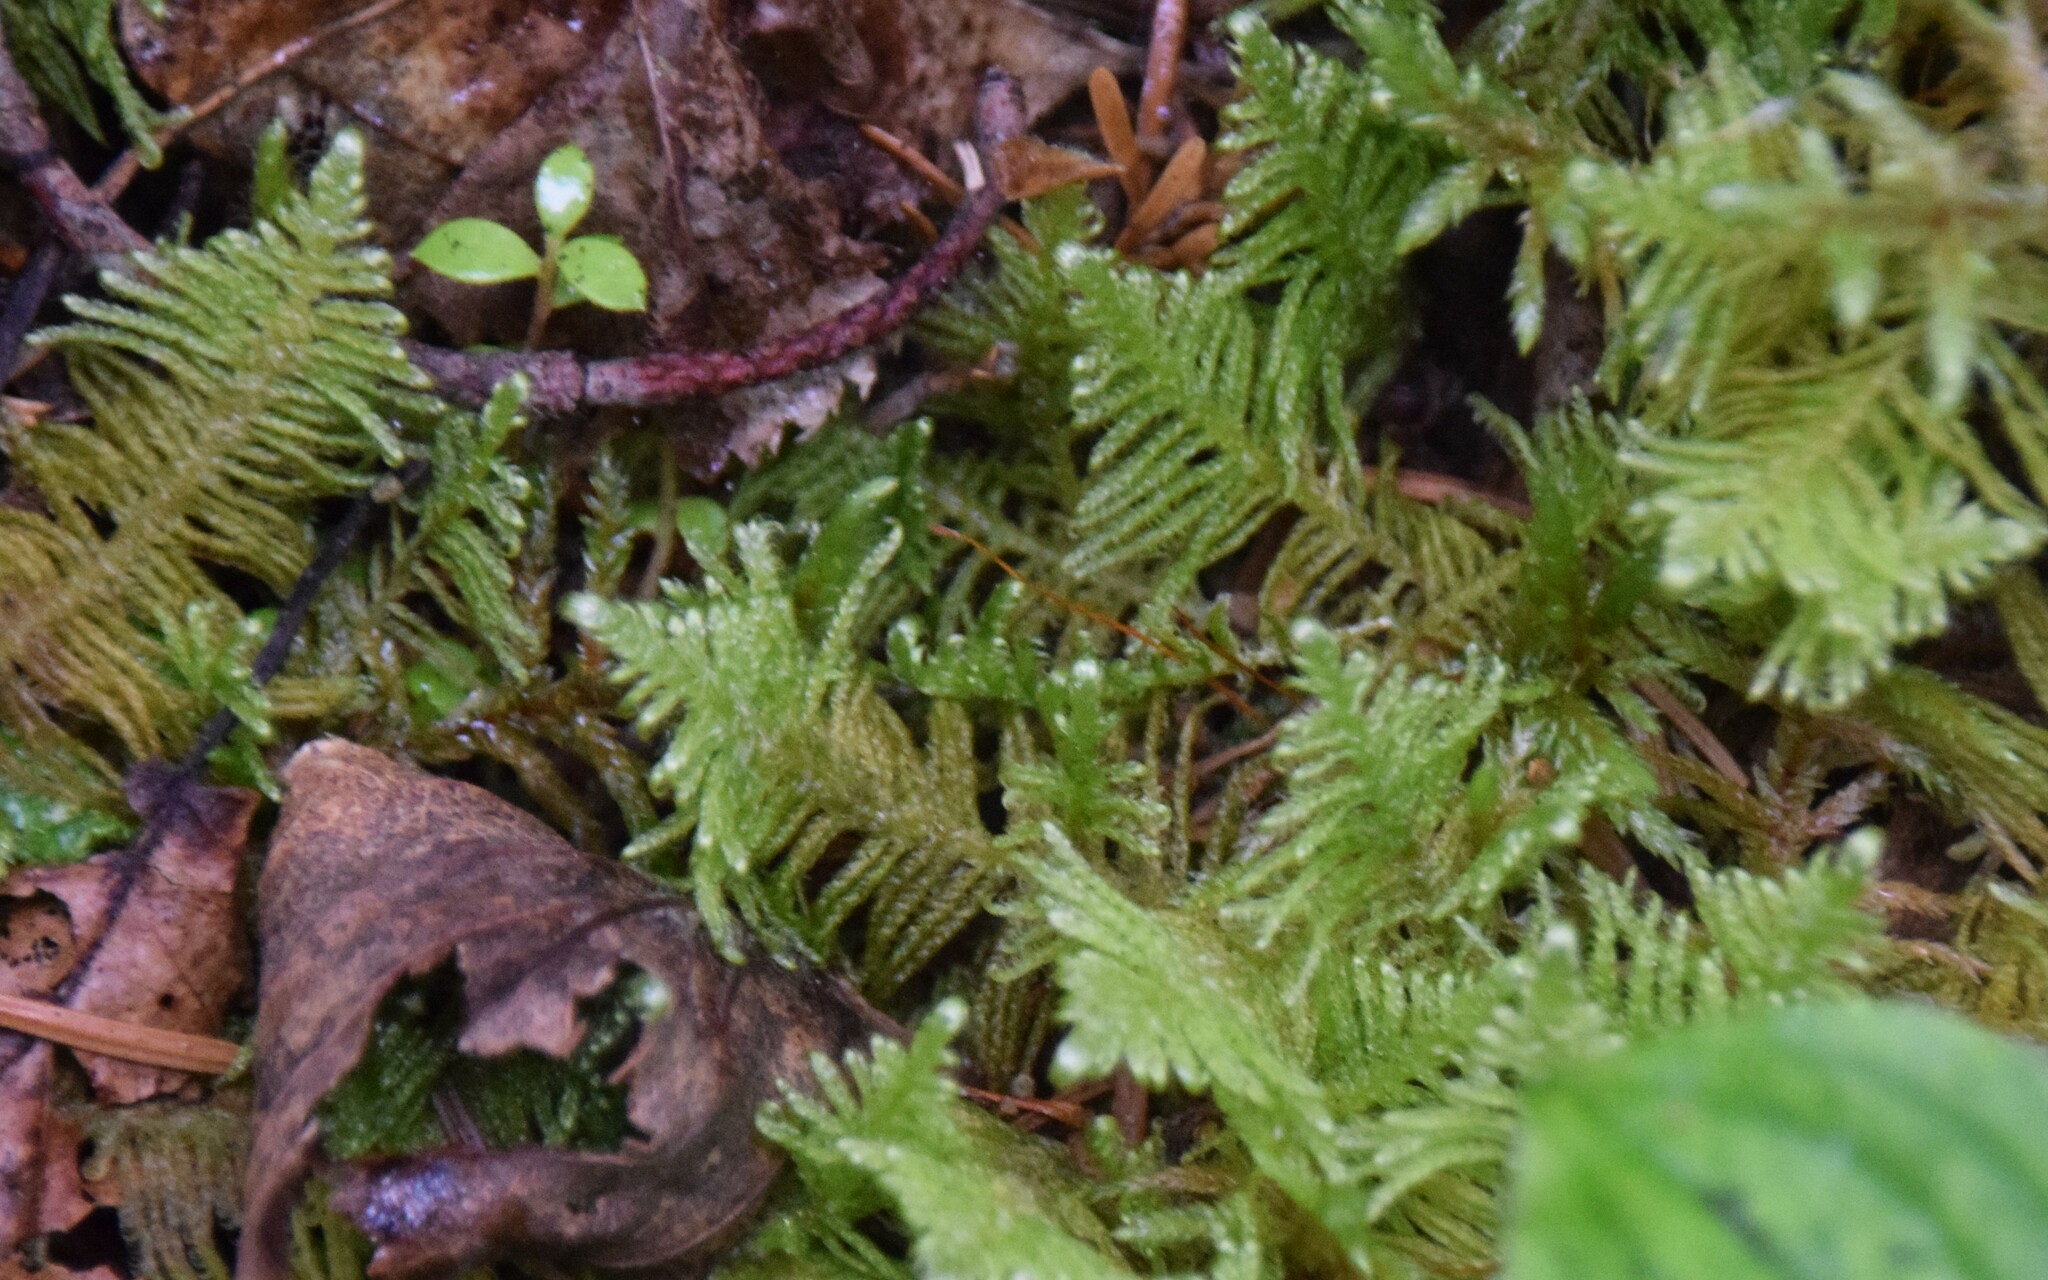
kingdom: Plantae
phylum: Bryophyta
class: Bryopsida
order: Hypnales
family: Pylaisiaceae
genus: Ptilium
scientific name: Ptilium crista-castrensis
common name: Knight's plume moss
